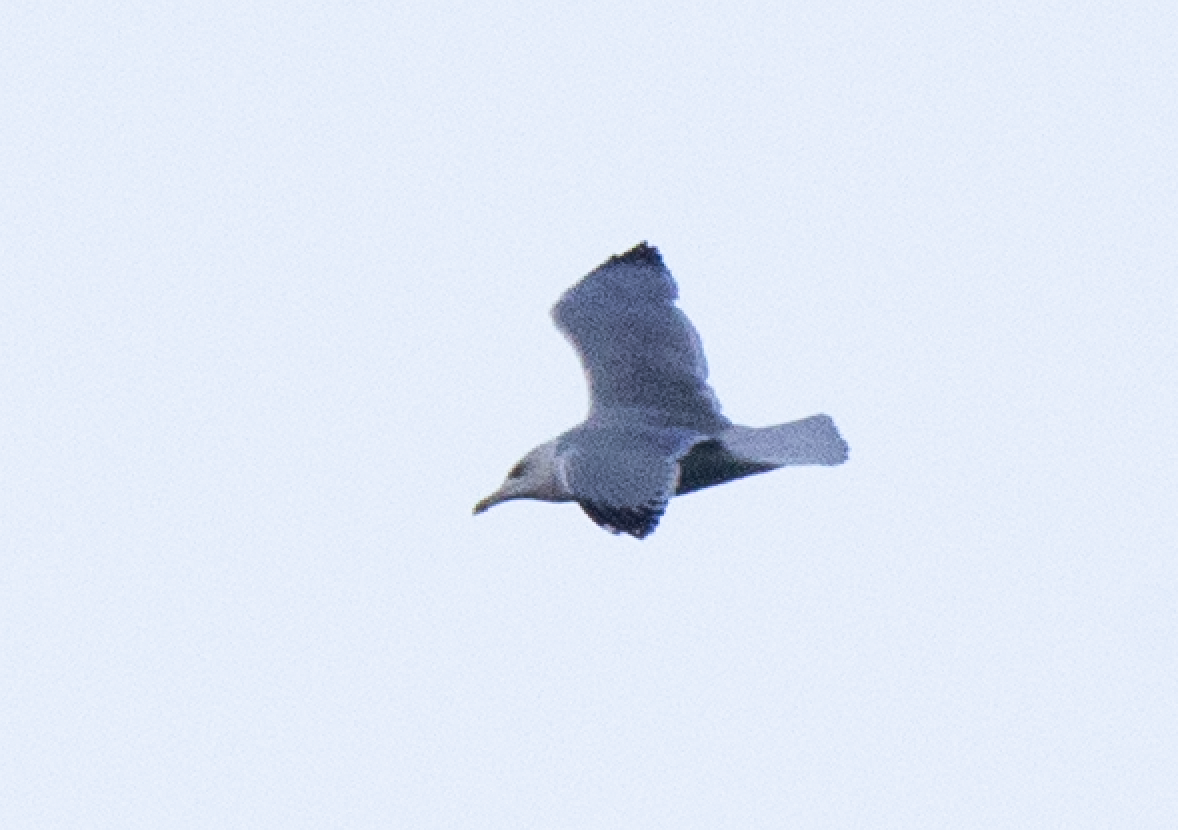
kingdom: Animalia
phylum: Chordata
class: Aves
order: Charadriiformes
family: Laridae
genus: Larus
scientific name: Larus michahellis
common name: Yellow-legged gull
